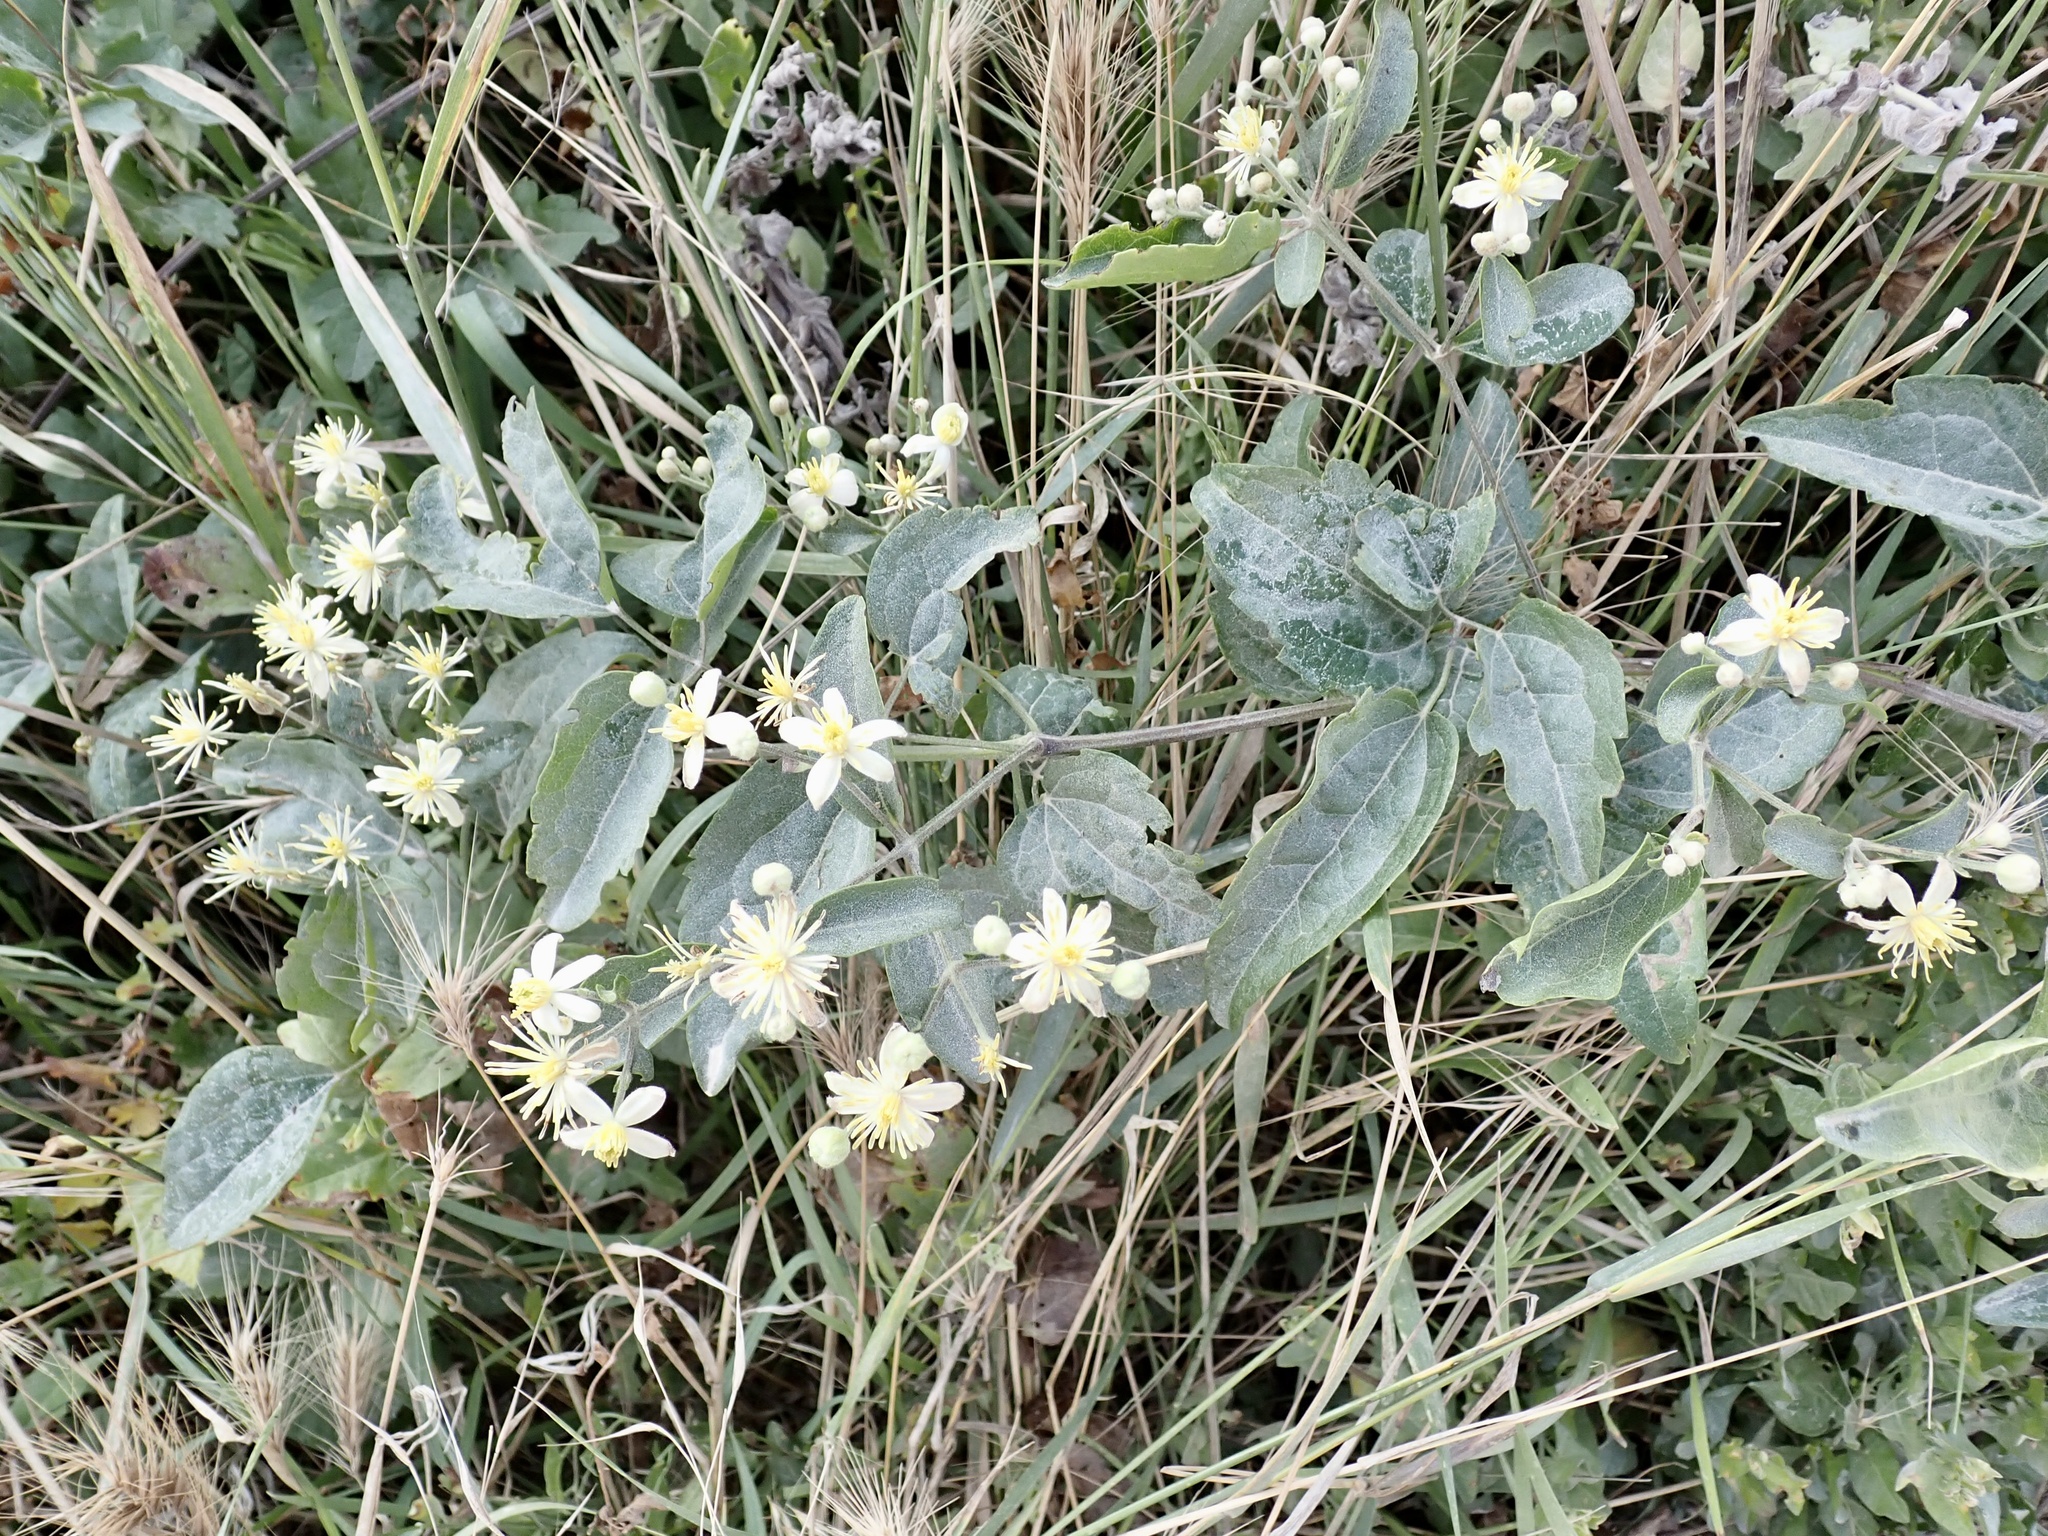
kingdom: Plantae
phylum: Tracheophyta
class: Magnoliopsida
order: Ranunculales
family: Ranunculaceae
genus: Clematis
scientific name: Clematis vitalba
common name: Evergreen clematis
